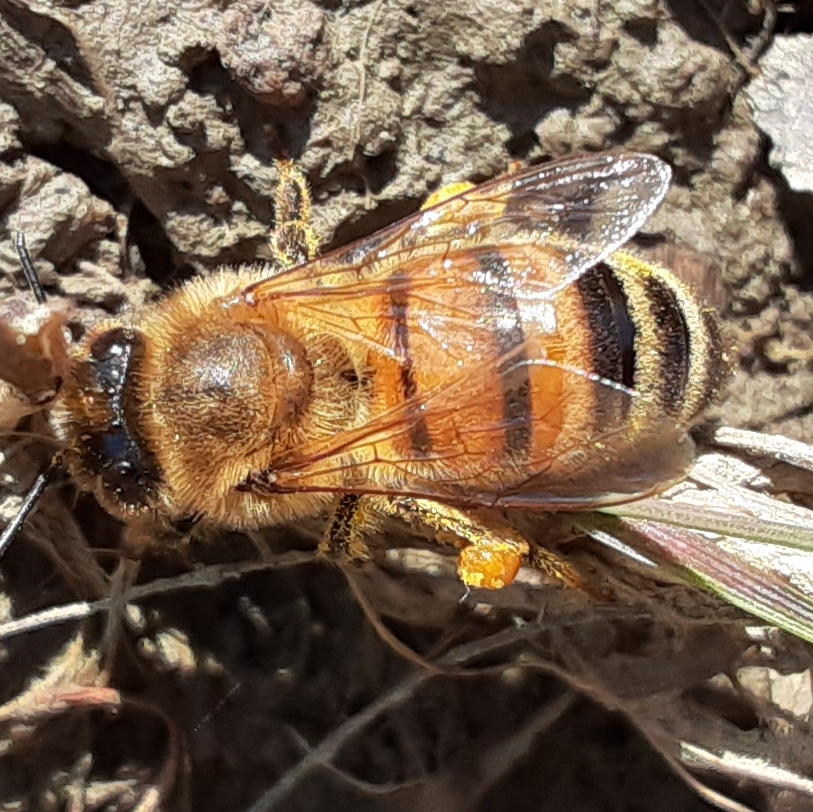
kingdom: Animalia
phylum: Arthropoda
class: Insecta
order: Hymenoptera
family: Apidae
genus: Apis
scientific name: Apis mellifera
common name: Honey bee
